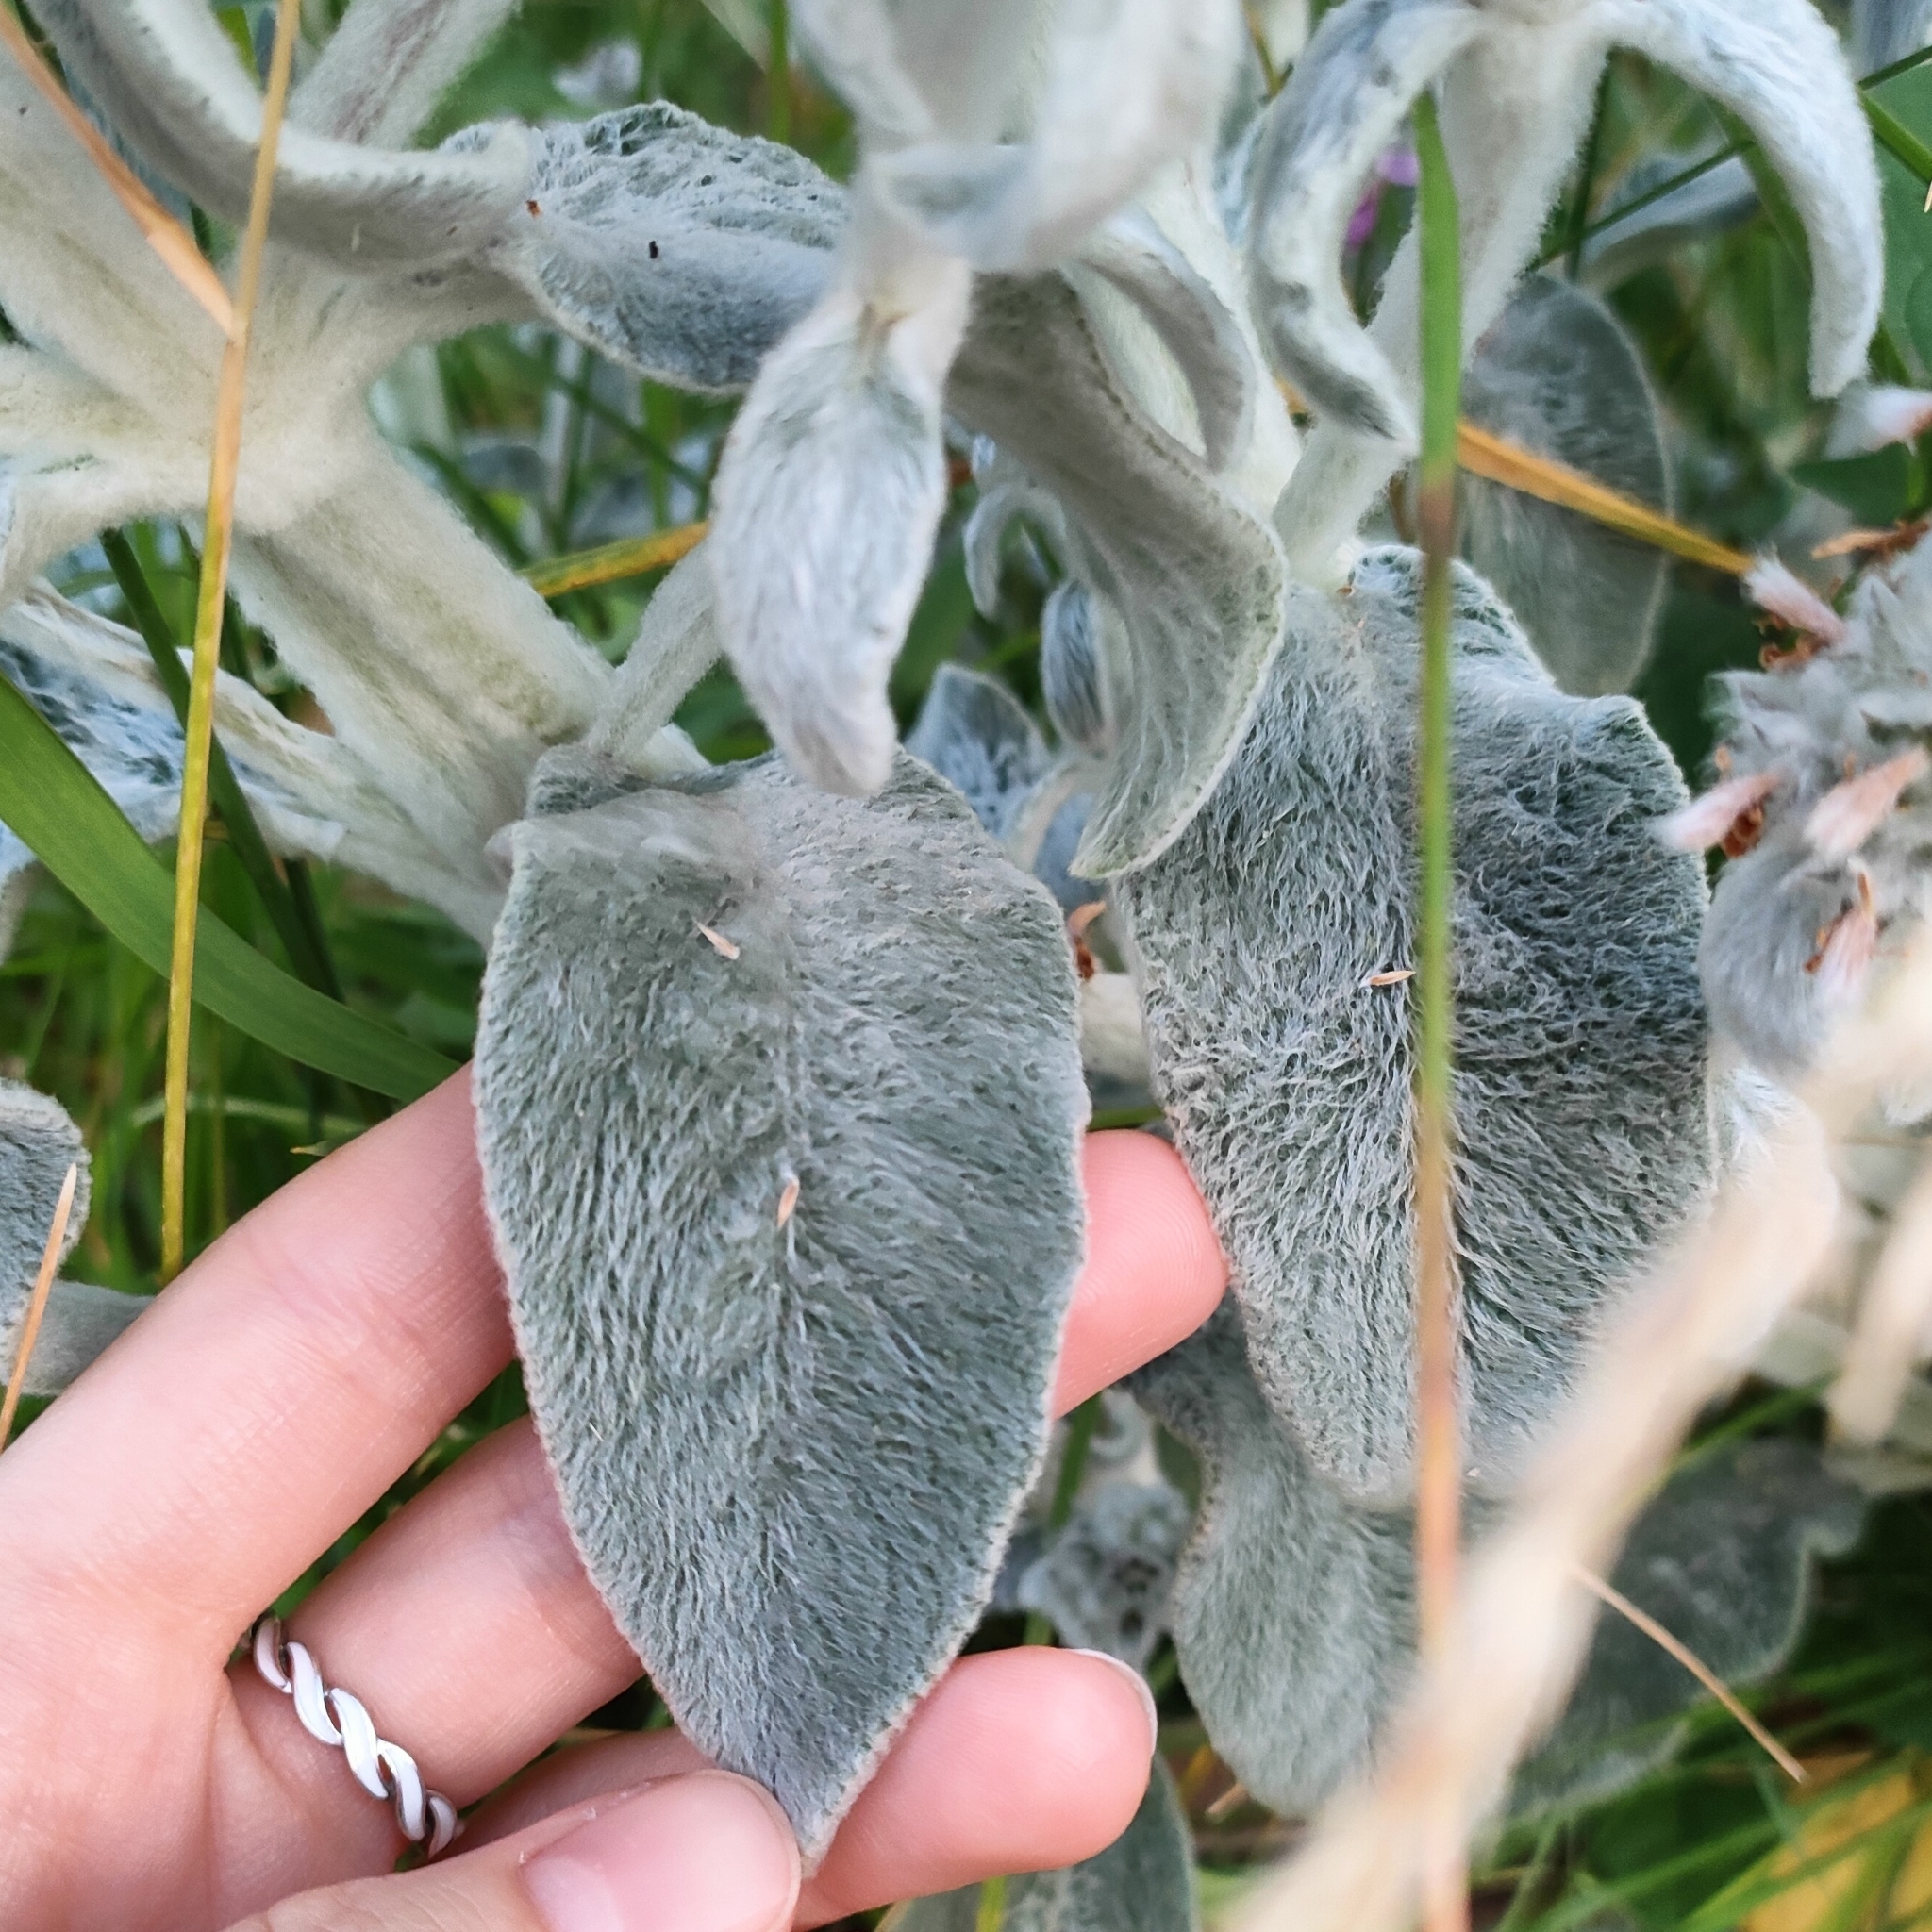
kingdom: Plantae
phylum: Tracheophyta
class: Magnoliopsida
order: Lamiales
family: Lamiaceae
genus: Stachys
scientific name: Stachys byzantina
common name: Lamb's-ear
